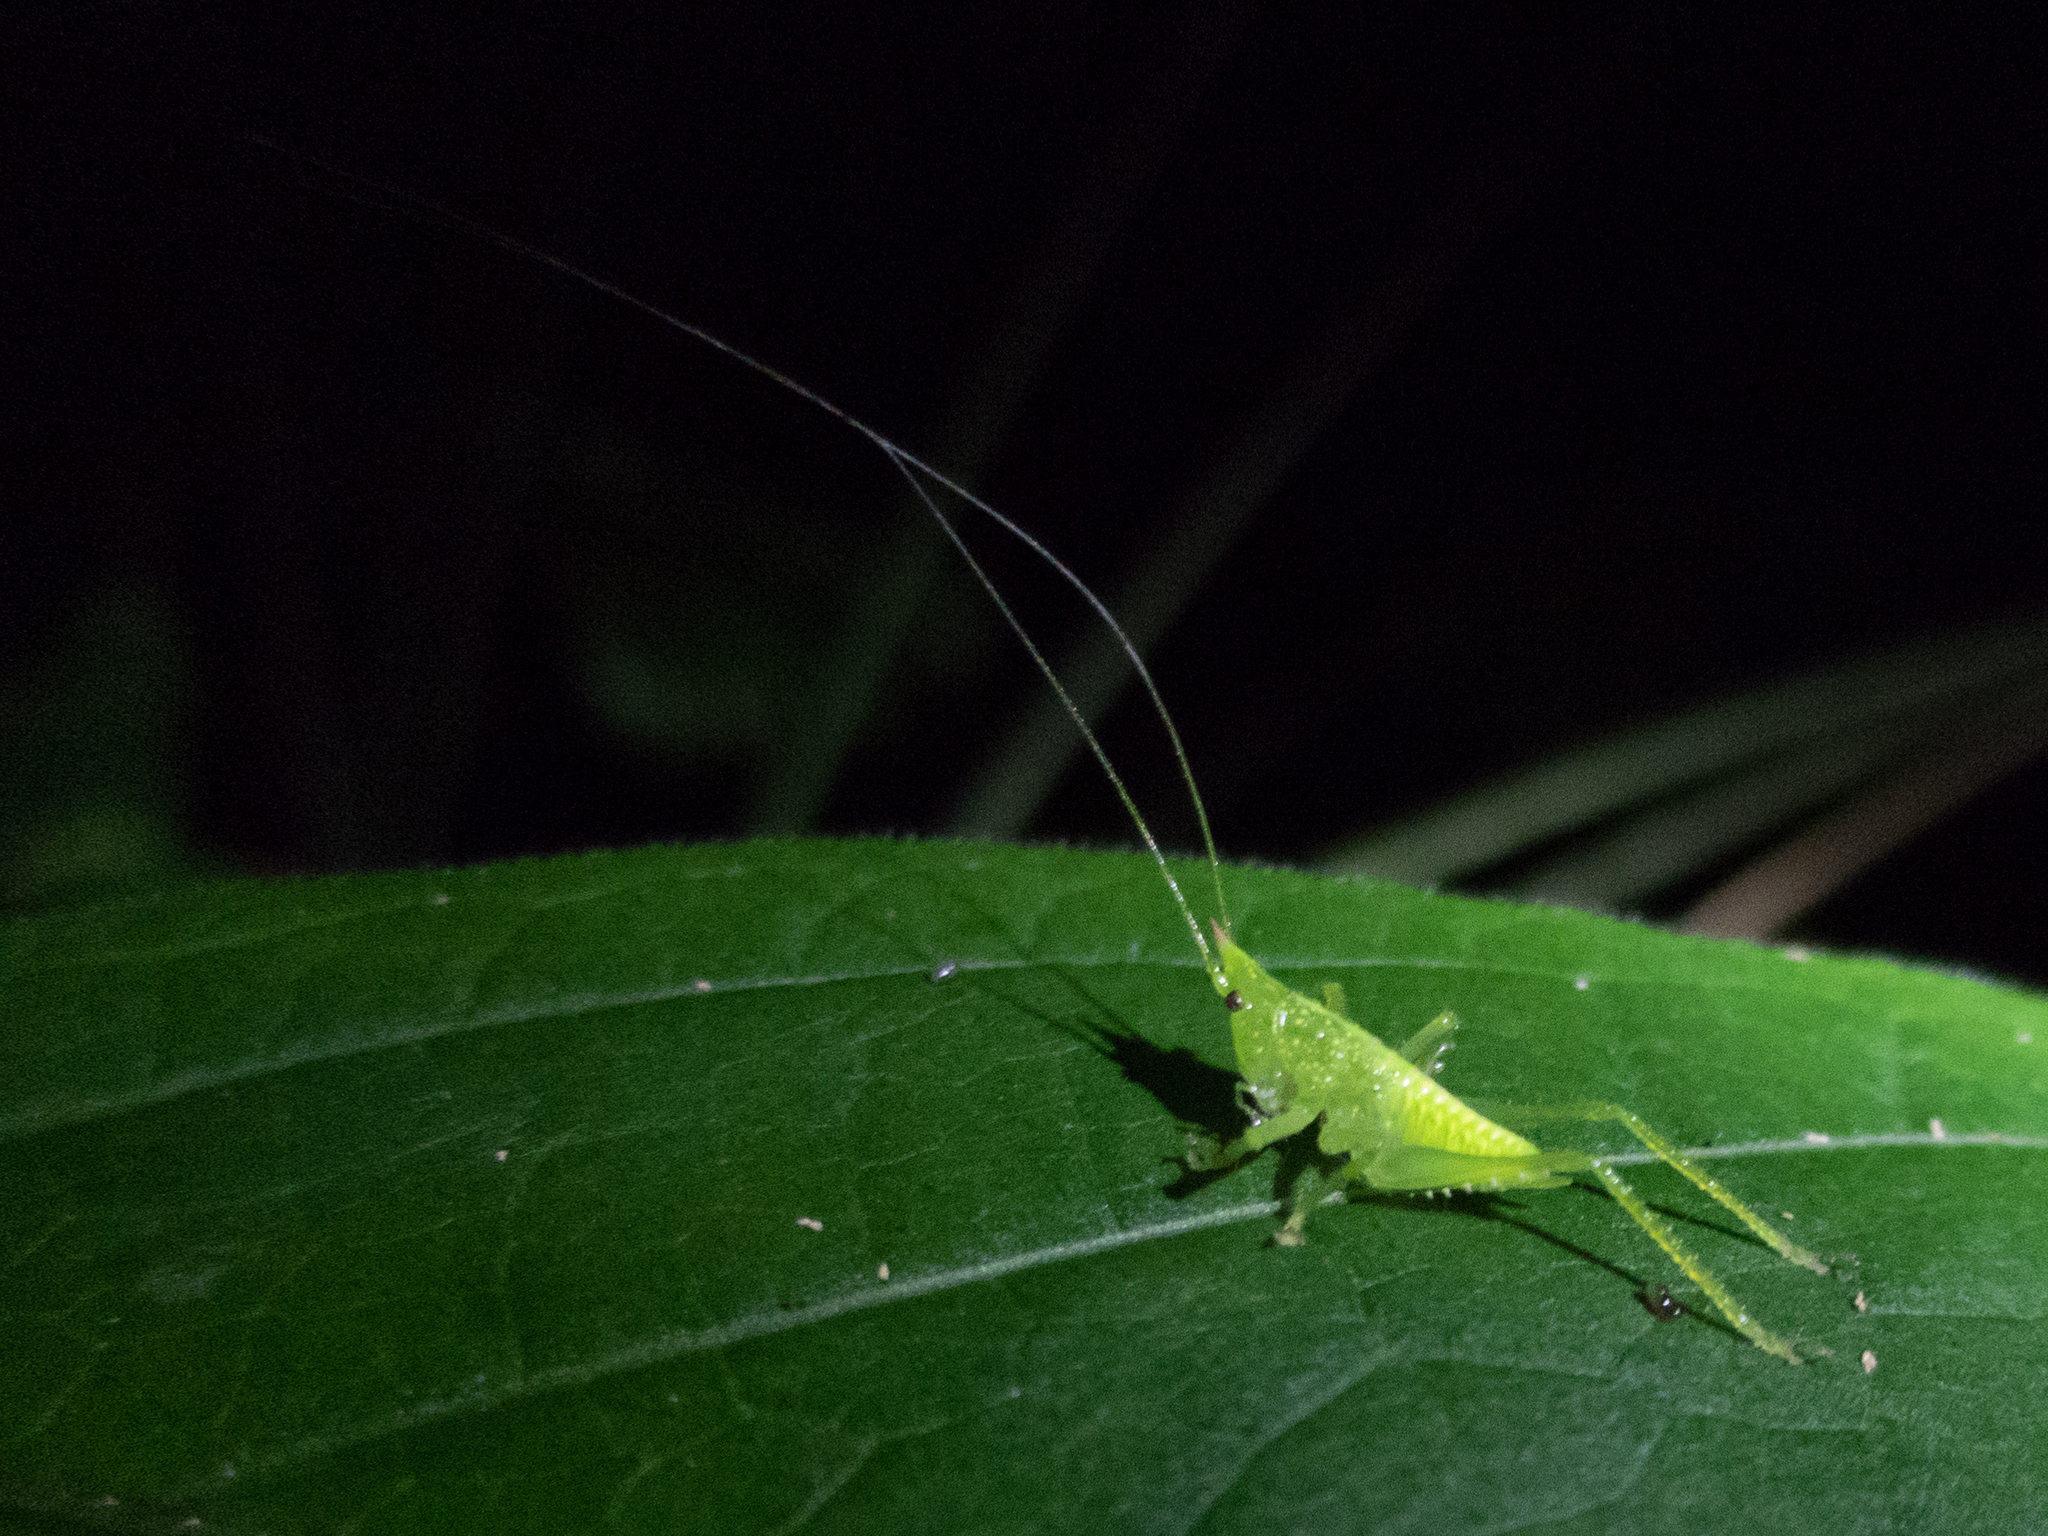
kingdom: Animalia
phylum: Arthropoda
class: Insecta
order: Orthoptera
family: Tettigoniidae
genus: Copiphora
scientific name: Copiphora rhinoceros
